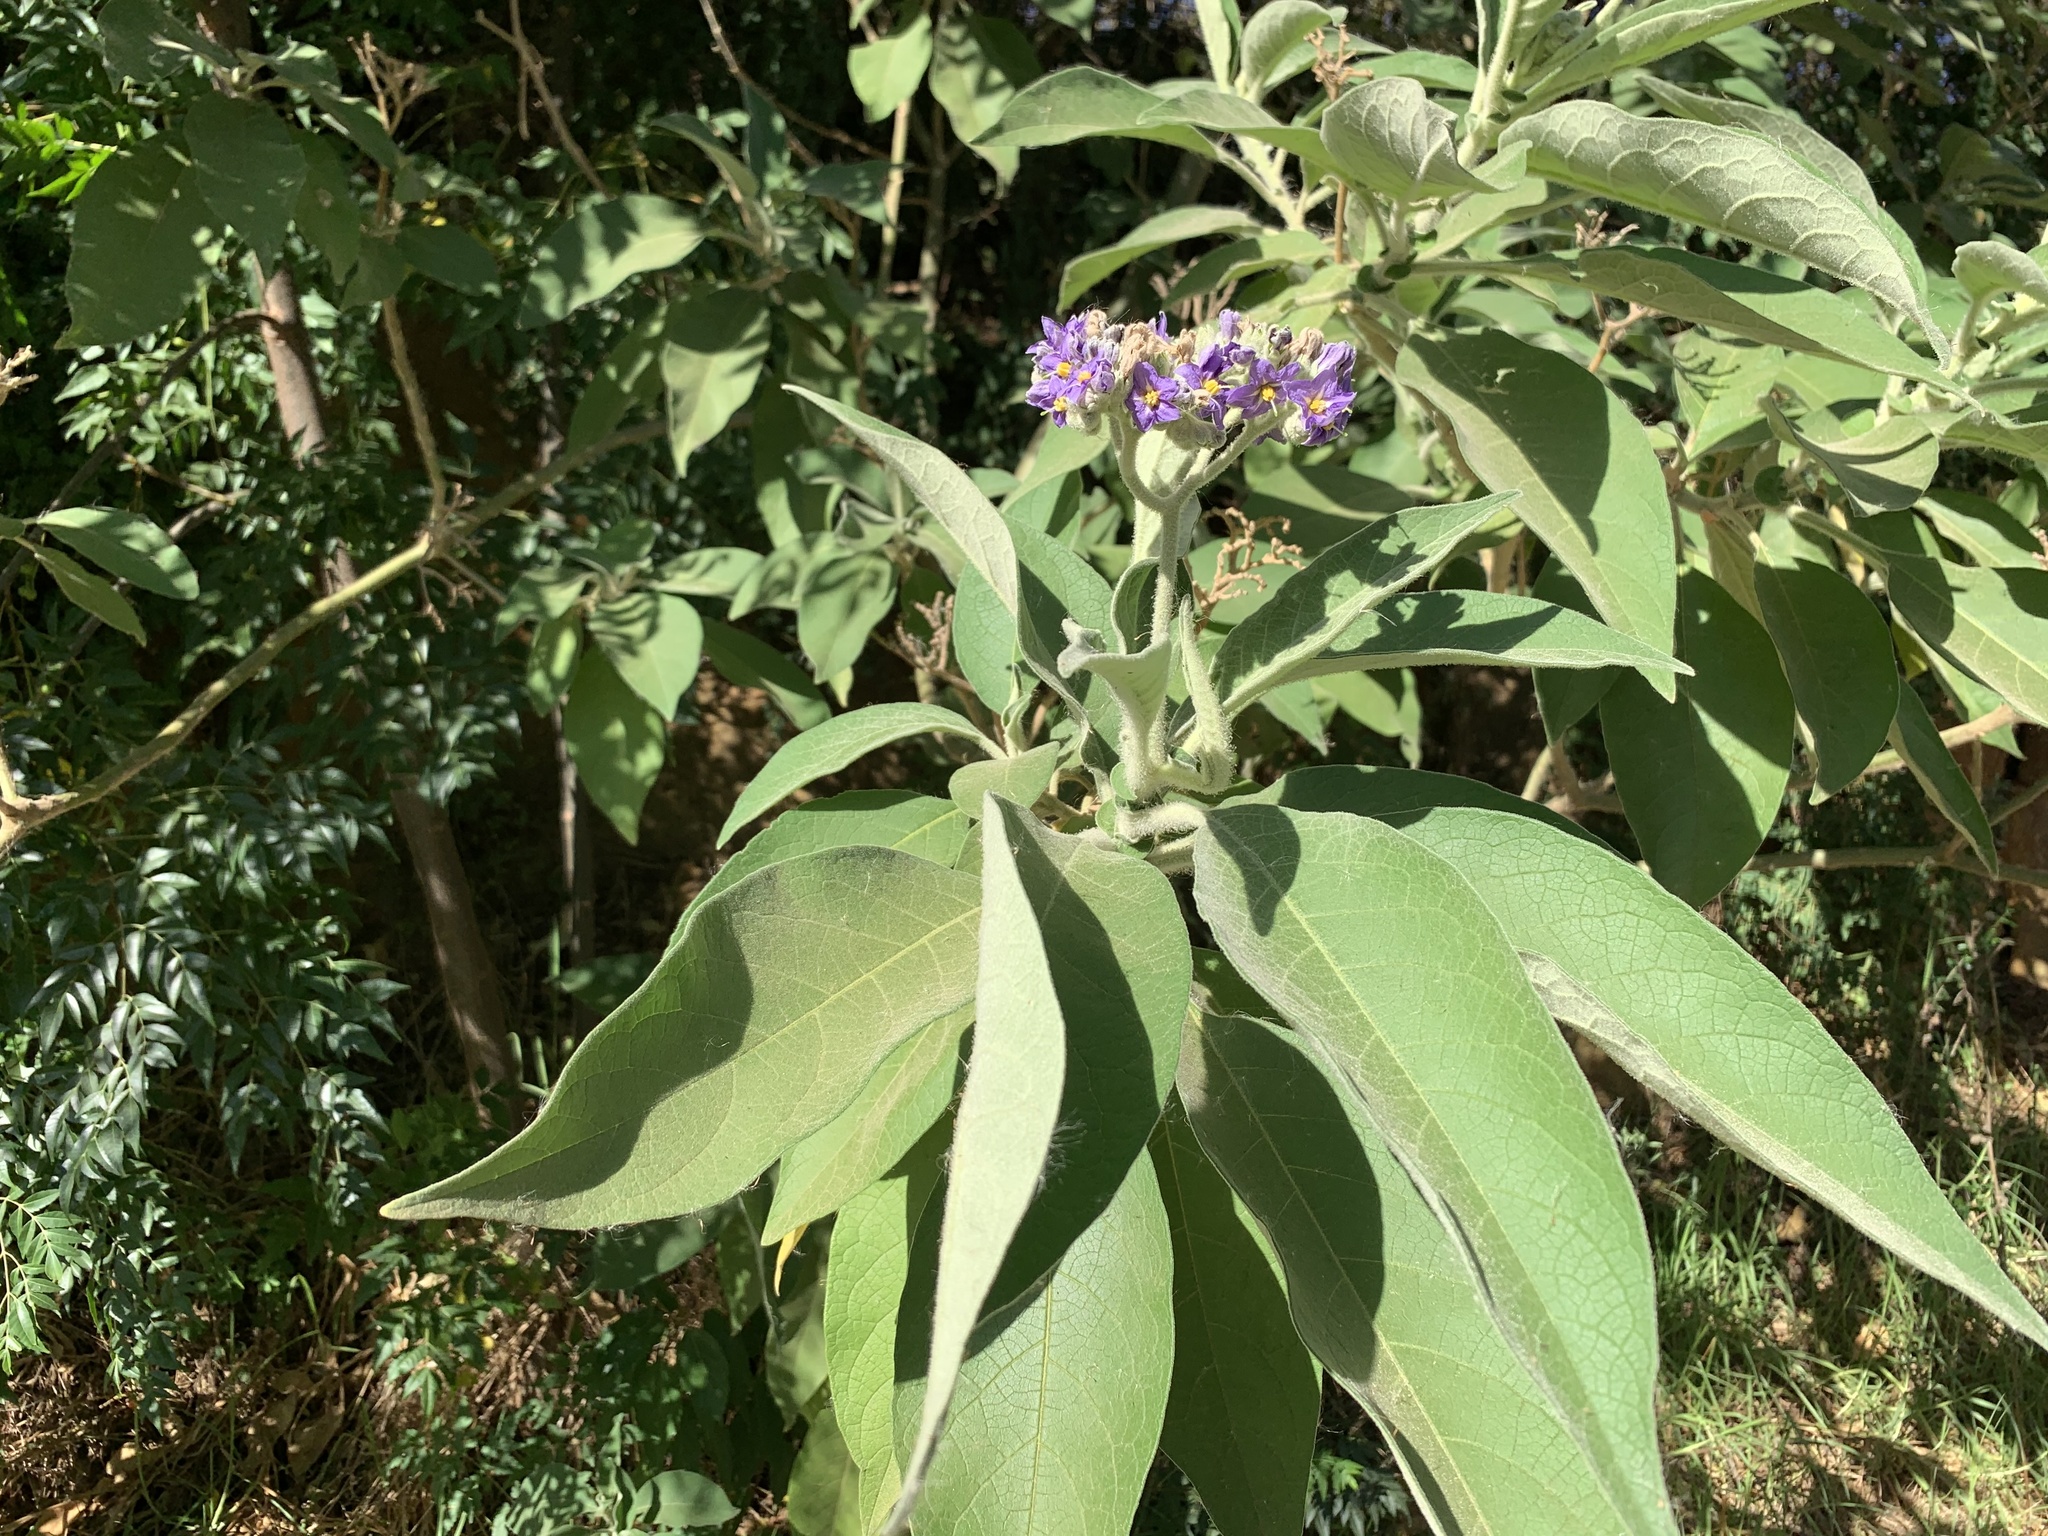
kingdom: Plantae
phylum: Tracheophyta
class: Magnoliopsida
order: Solanales
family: Solanaceae
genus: Solanum
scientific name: Solanum mauritianum
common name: Earleaf nightshade
